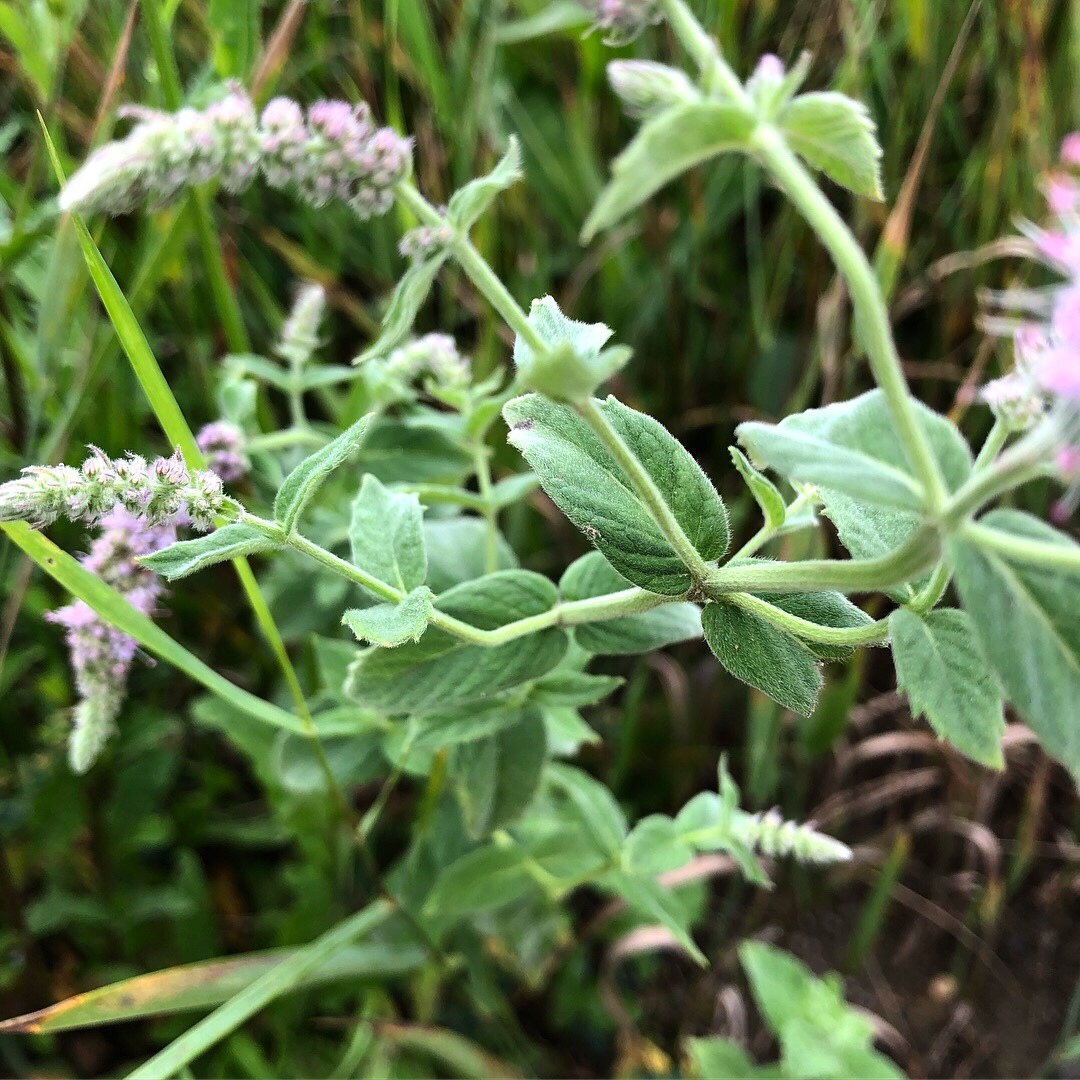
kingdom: Plantae
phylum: Tracheophyta
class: Magnoliopsida
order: Lamiales
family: Lamiaceae
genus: Mentha
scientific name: Mentha longifolia
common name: Horse mint
